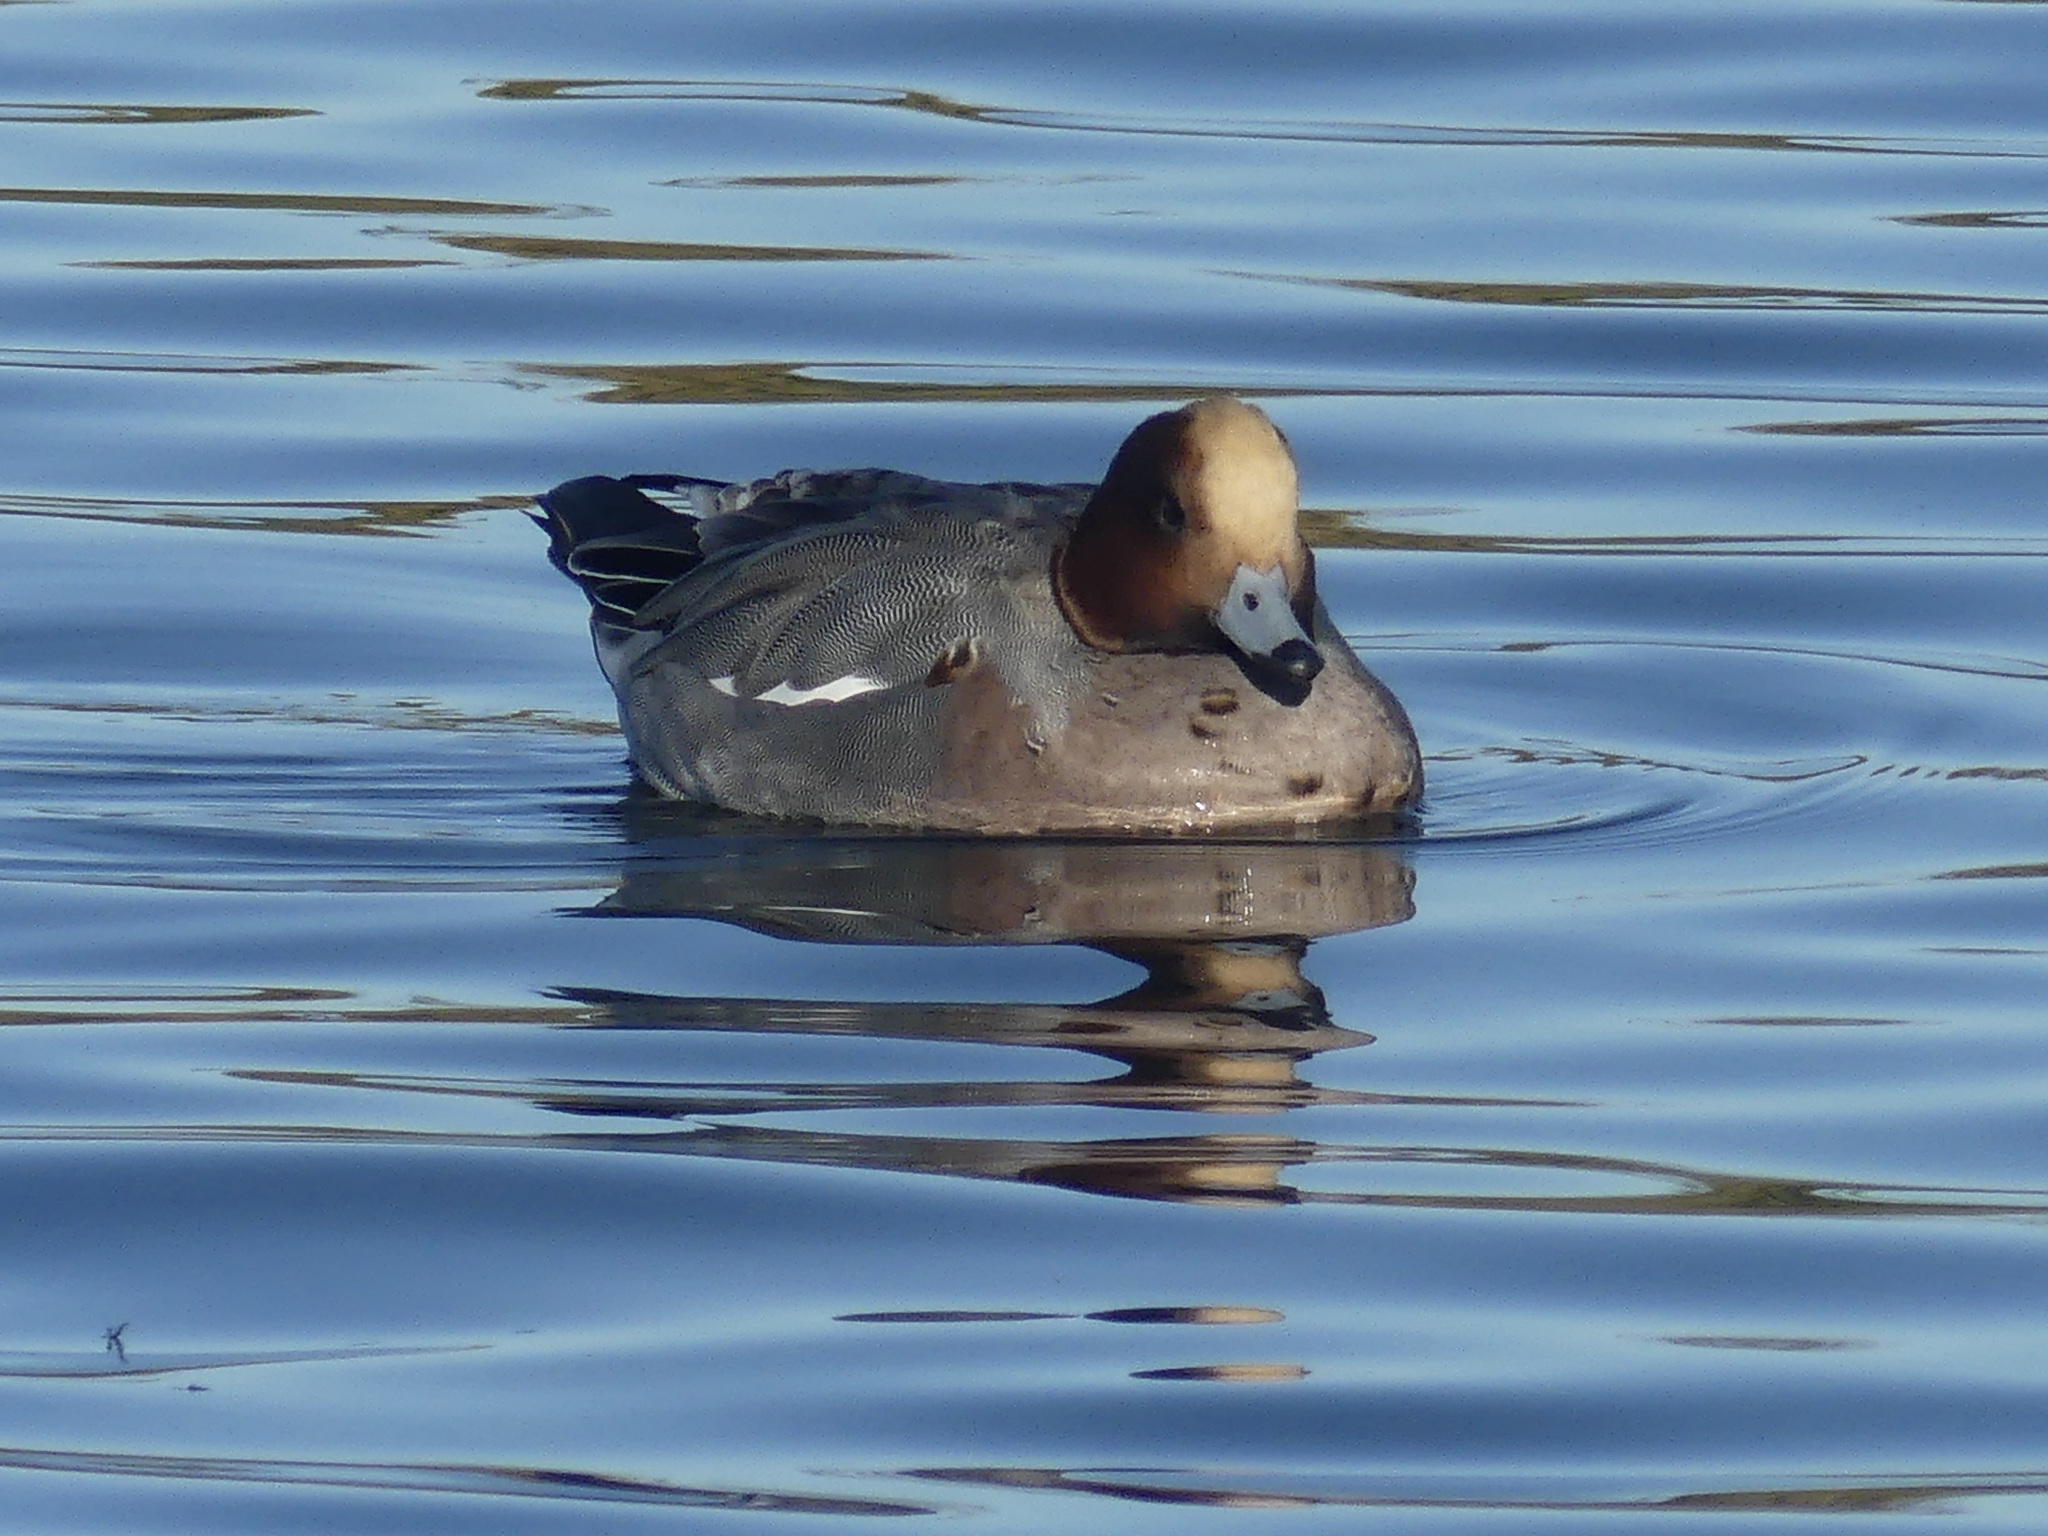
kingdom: Animalia
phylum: Chordata
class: Aves
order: Anseriformes
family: Anatidae
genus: Mareca
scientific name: Mareca penelope
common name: Eurasian wigeon
